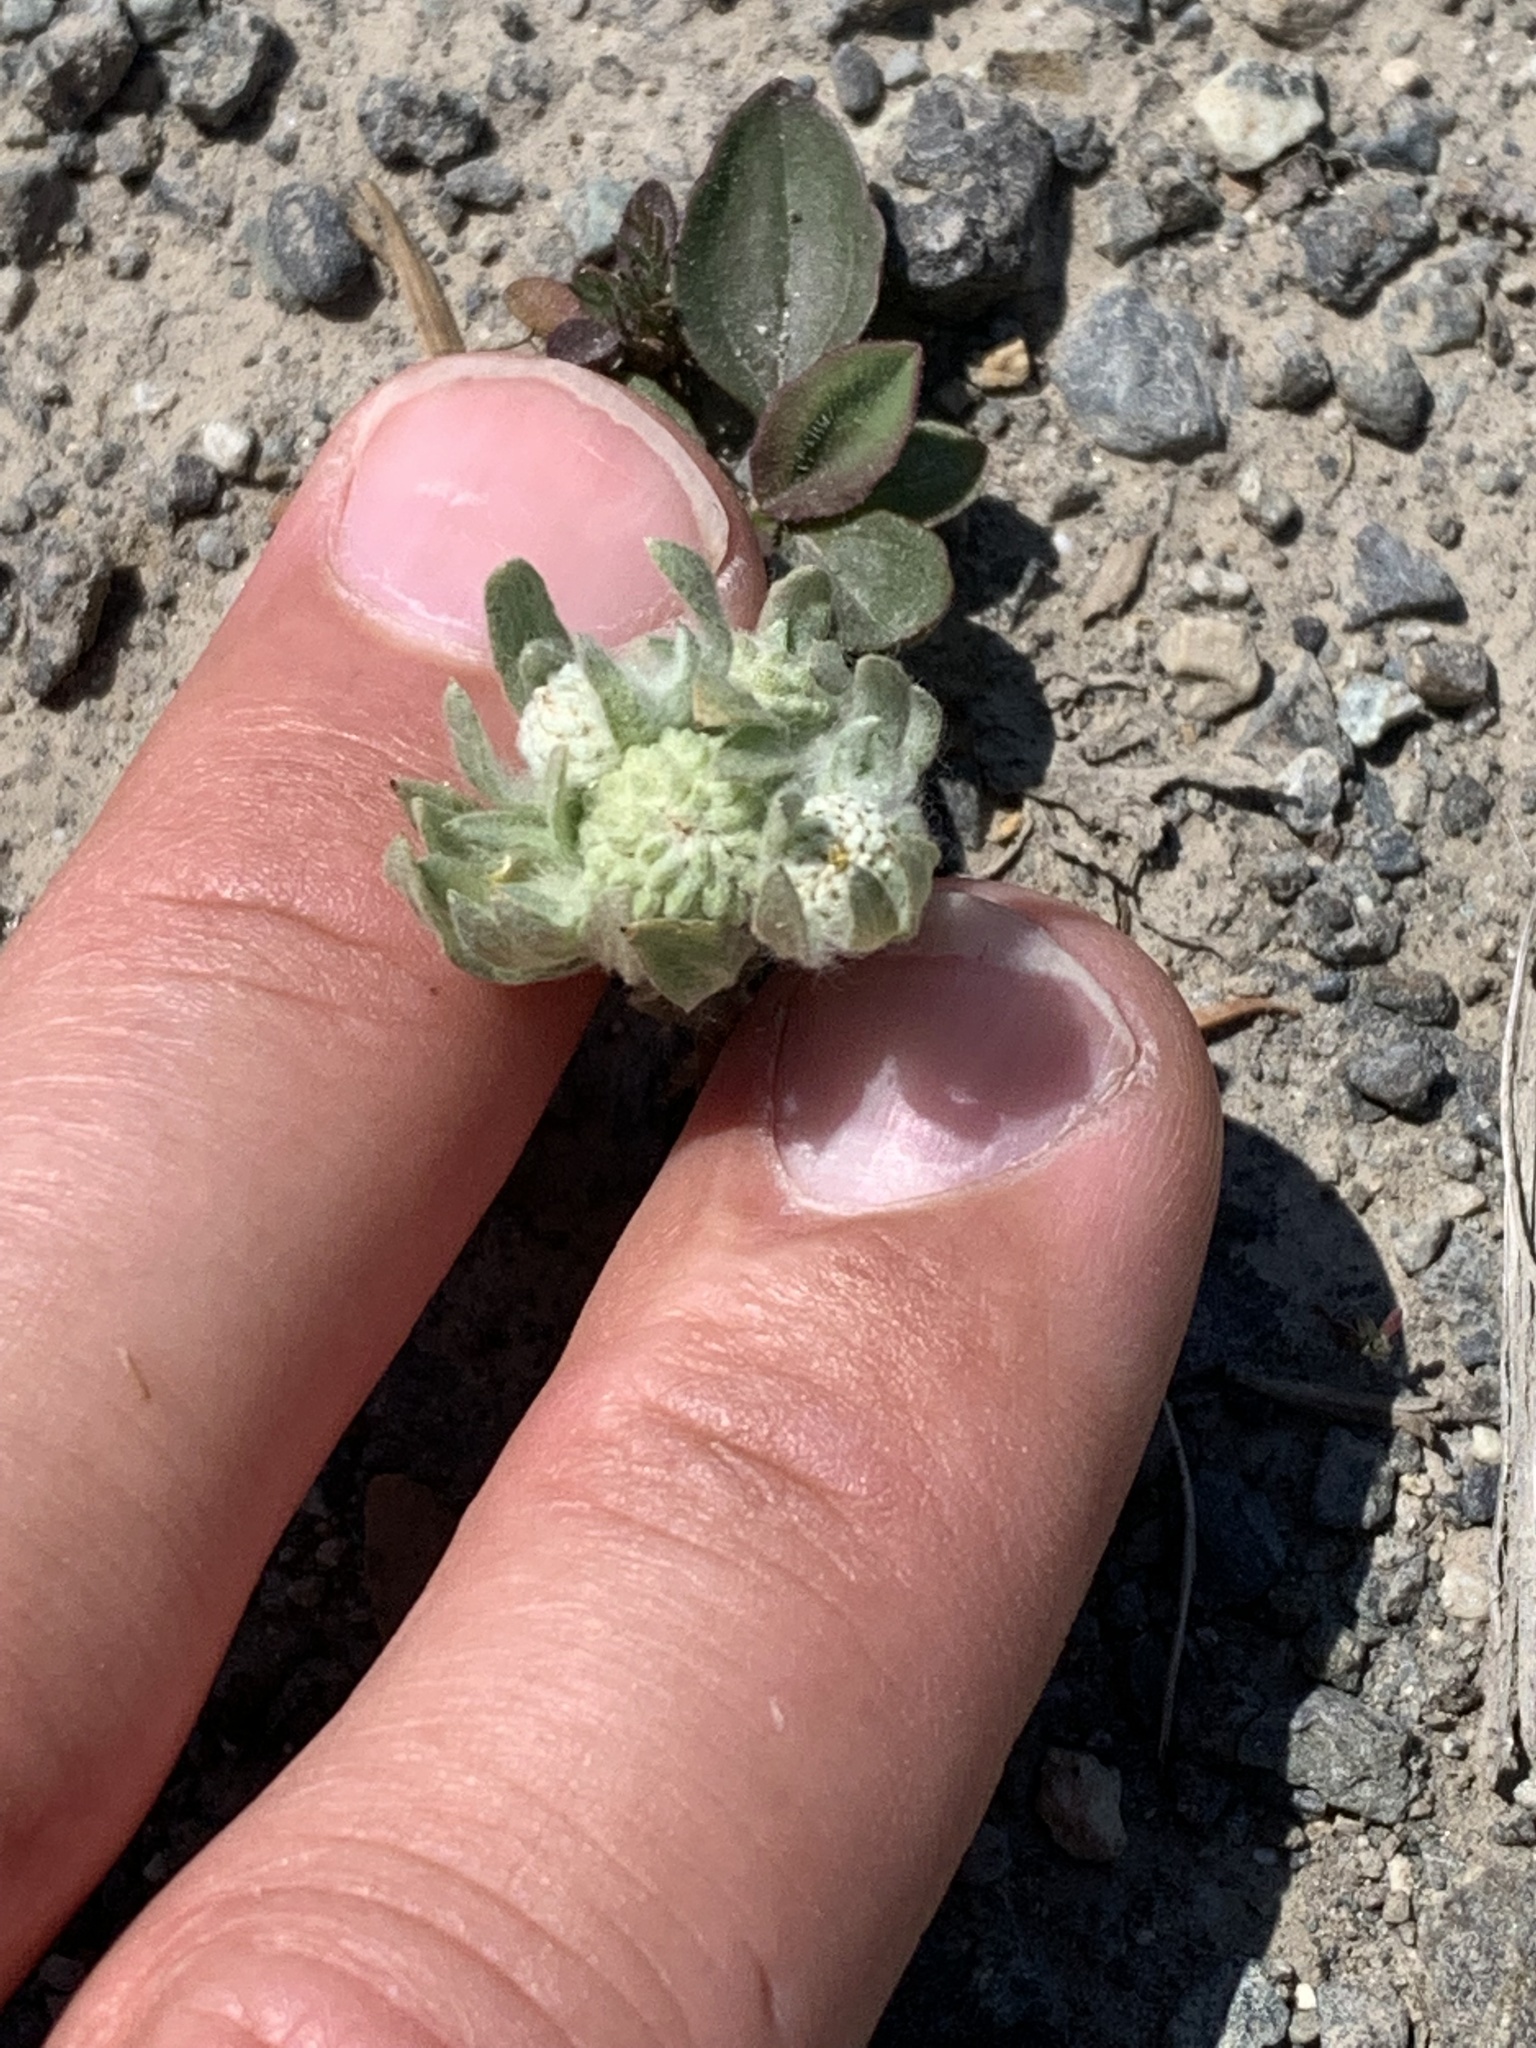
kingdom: Plantae
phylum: Tracheophyta
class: Magnoliopsida
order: Asterales
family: Asteraceae
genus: Psilocarphus
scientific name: Psilocarphus elatior
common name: Meadow woollyheads
